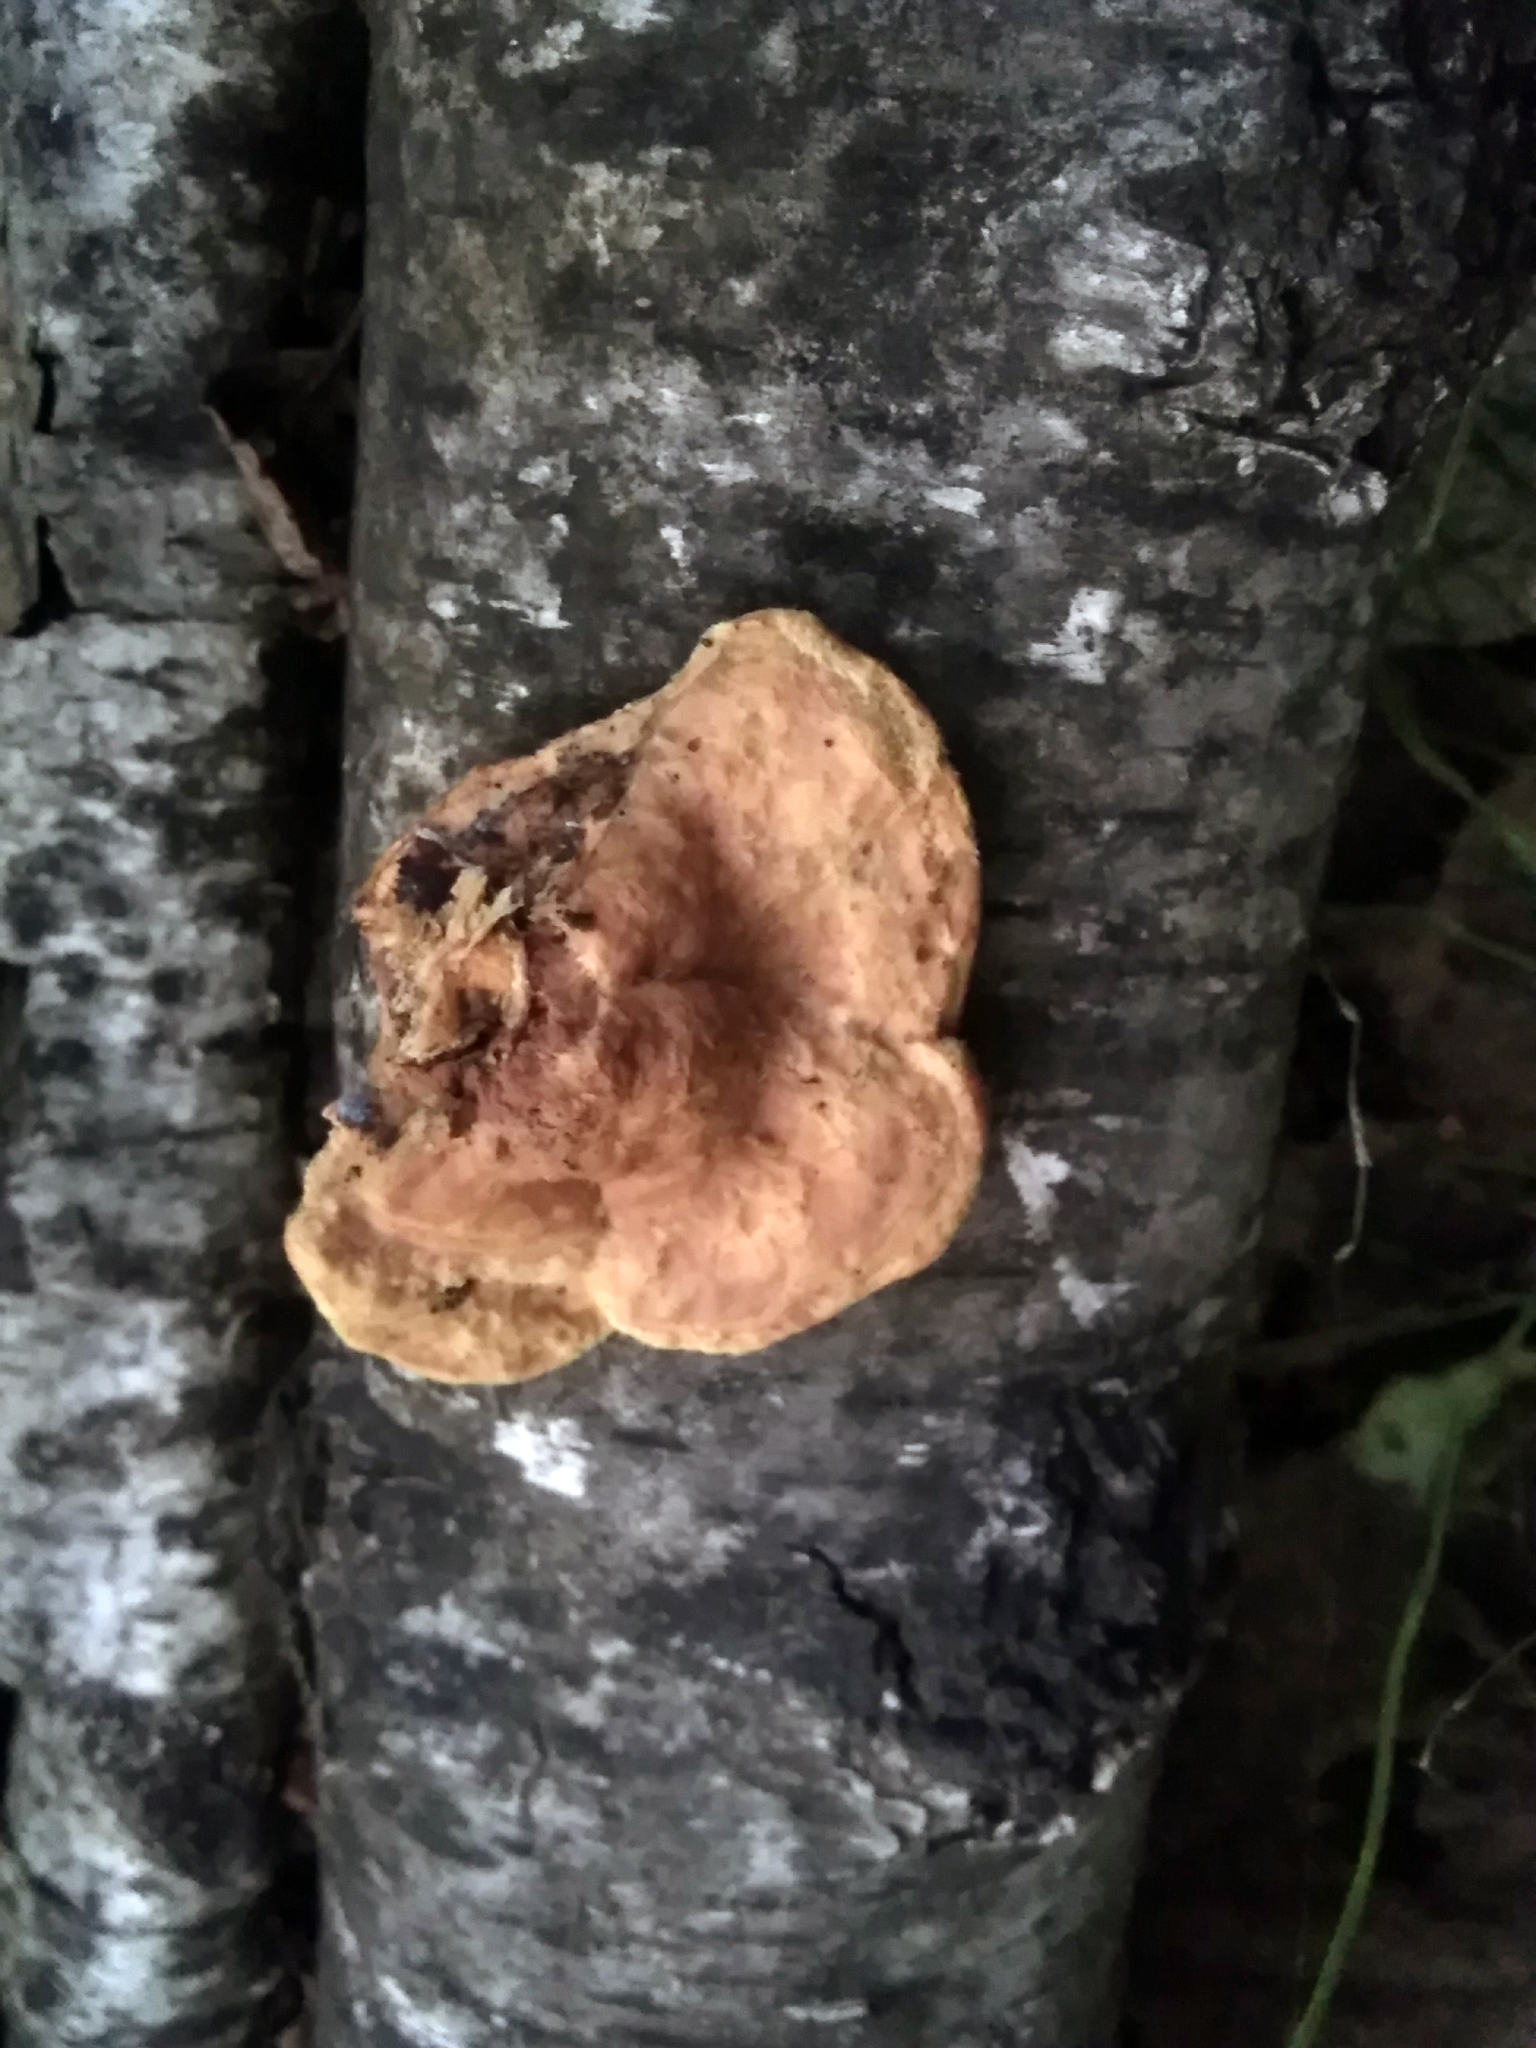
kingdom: Fungi
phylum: Basidiomycota
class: Agaricomycetes
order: Polyporales
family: Phanerochaetaceae
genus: Hapalopilus
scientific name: Hapalopilus rutilans
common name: Tender nesting polypore
